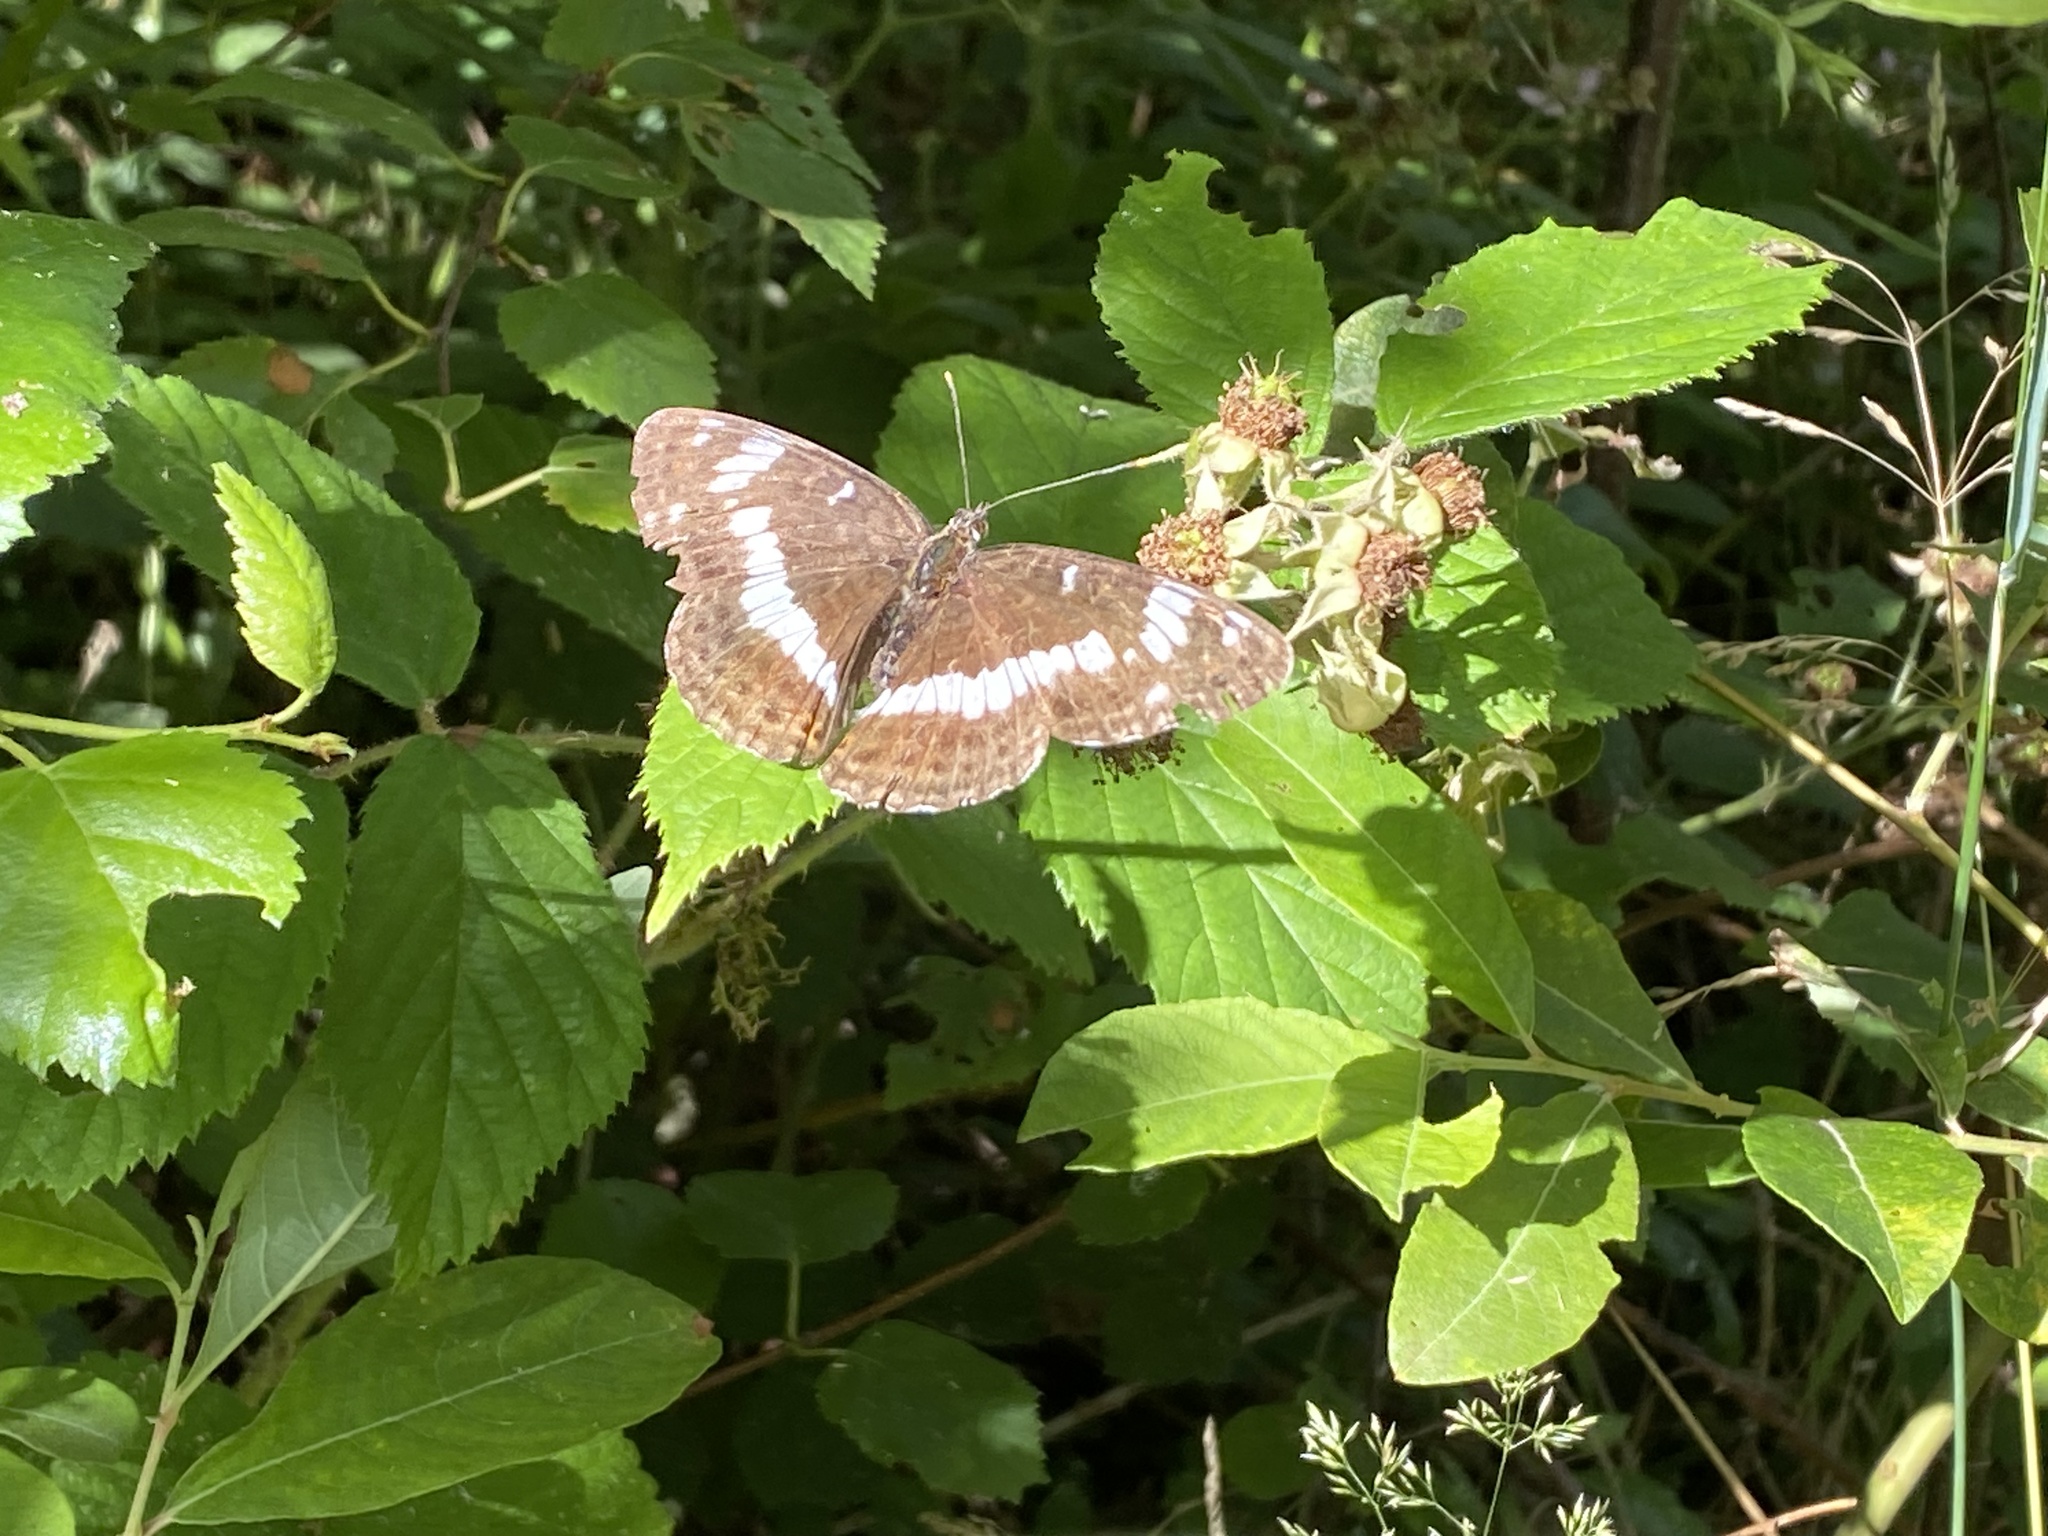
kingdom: Animalia
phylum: Arthropoda
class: Insecta
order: Lepidoptera
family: Nymphalidae
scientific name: Nymphalidae
